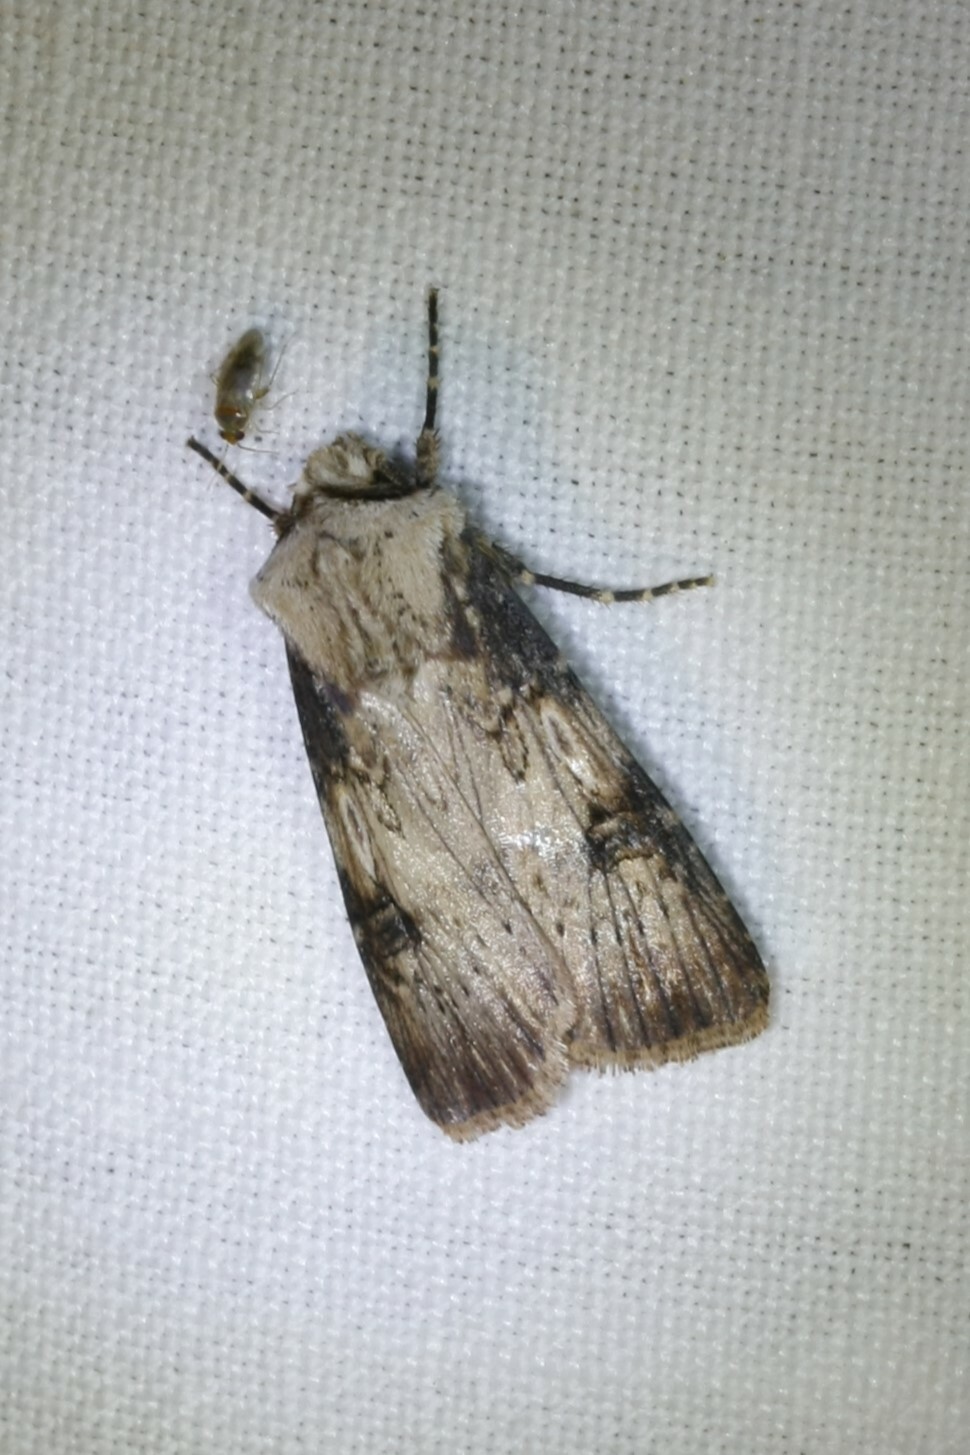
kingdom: Animalia
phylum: Arthropoda
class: Insecta
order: Lepidoptera
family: Noctuidae
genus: Agrotis
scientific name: Agrotis puta
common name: Shuttle-shaped dart
